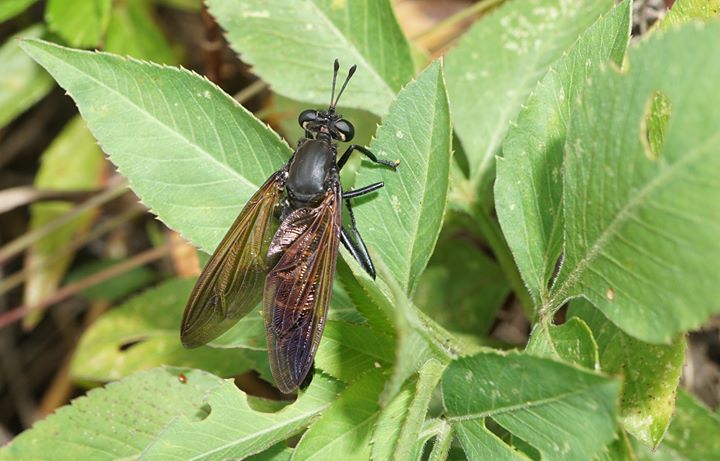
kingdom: Animalia
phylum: Arthropoda
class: Insecta
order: Diptera
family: Mydidae
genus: Mydas
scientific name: Mydas maculiventris
